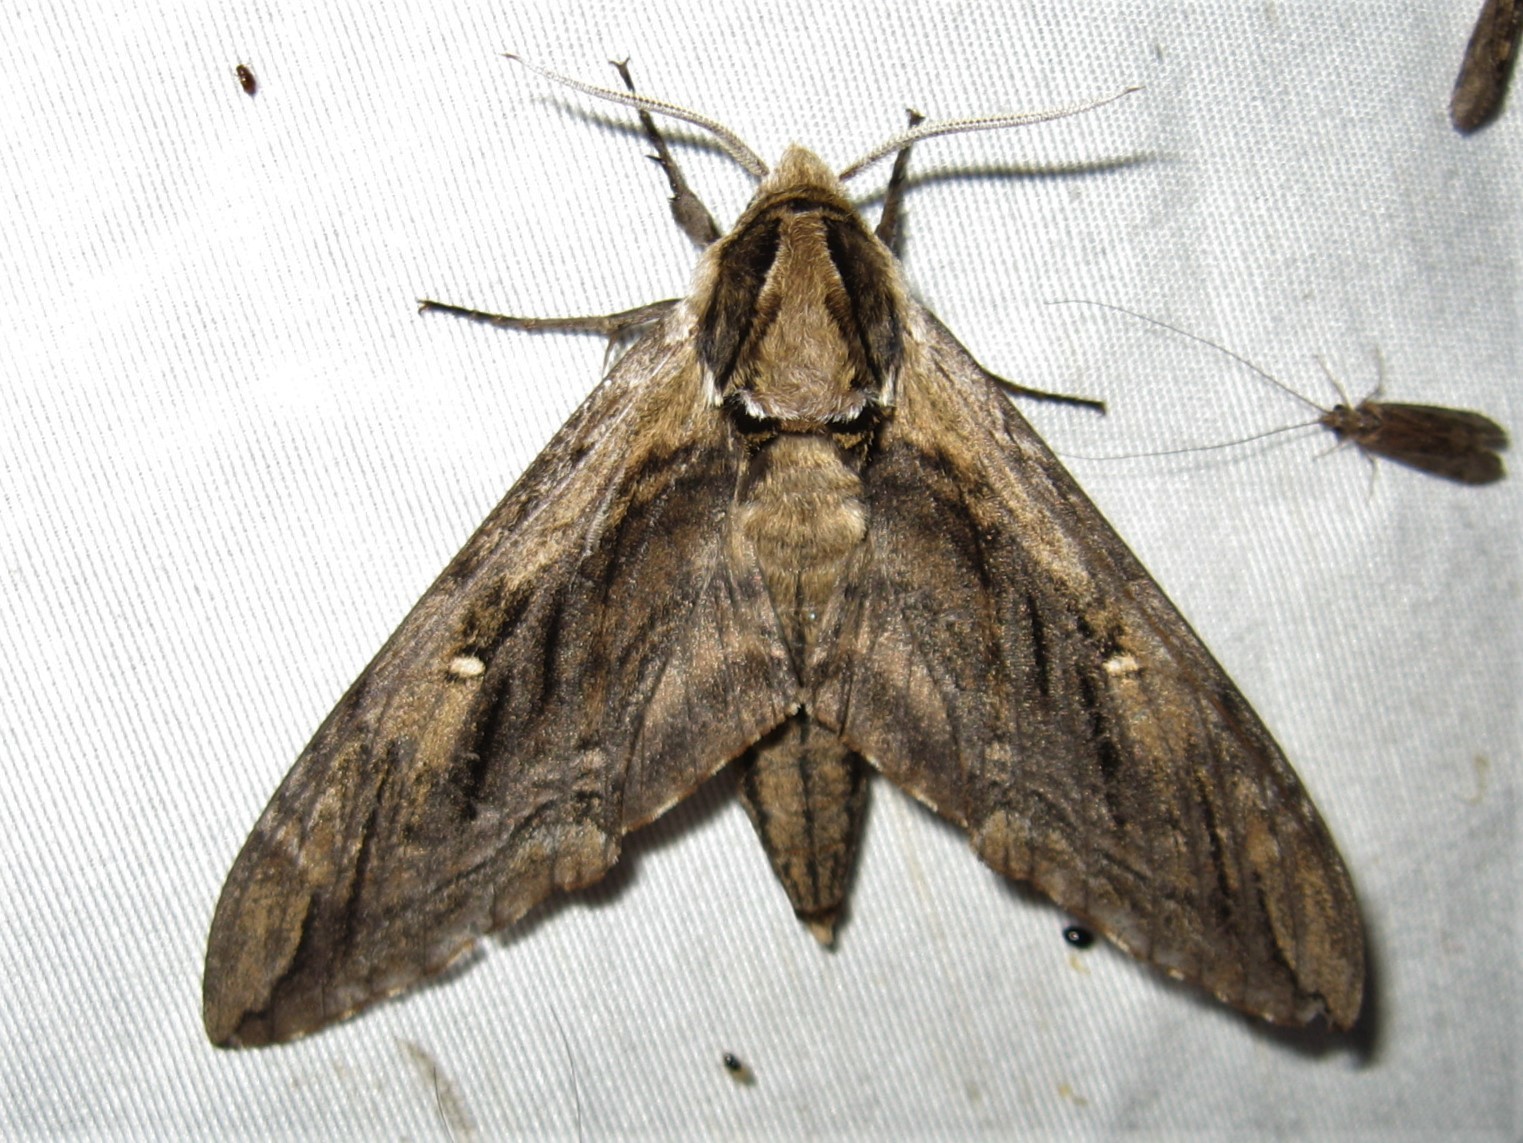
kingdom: Animalia
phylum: Arthropoda
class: Insecta
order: Lepidoptera
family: Sphingidae
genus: Ceratomia
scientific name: Ceratomia amyntor
